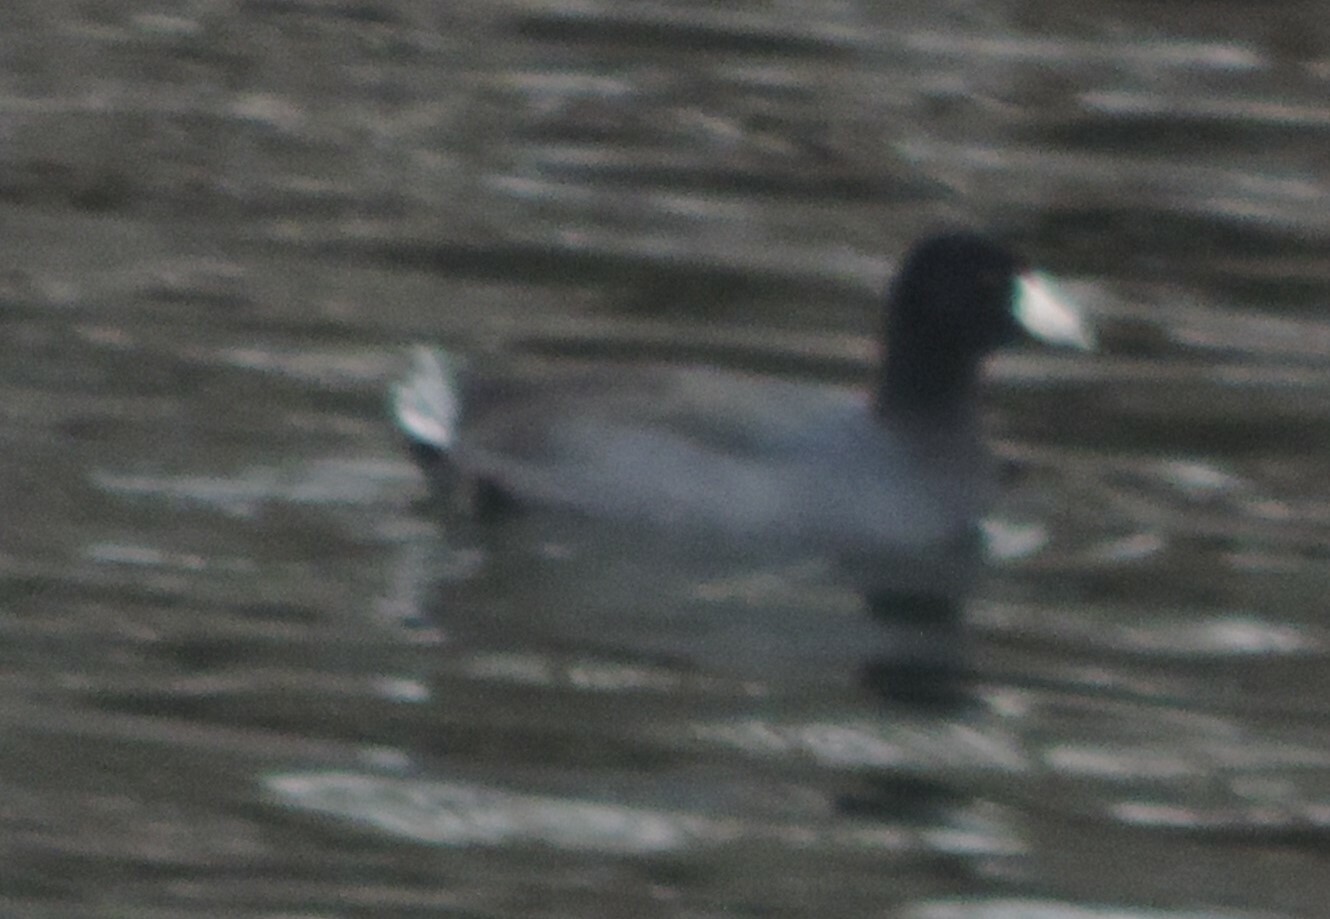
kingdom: Animalia
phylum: Chordata
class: Aves
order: Gruiformes
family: Rallidae
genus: Fulica
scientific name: Fulica americana
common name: American coot
